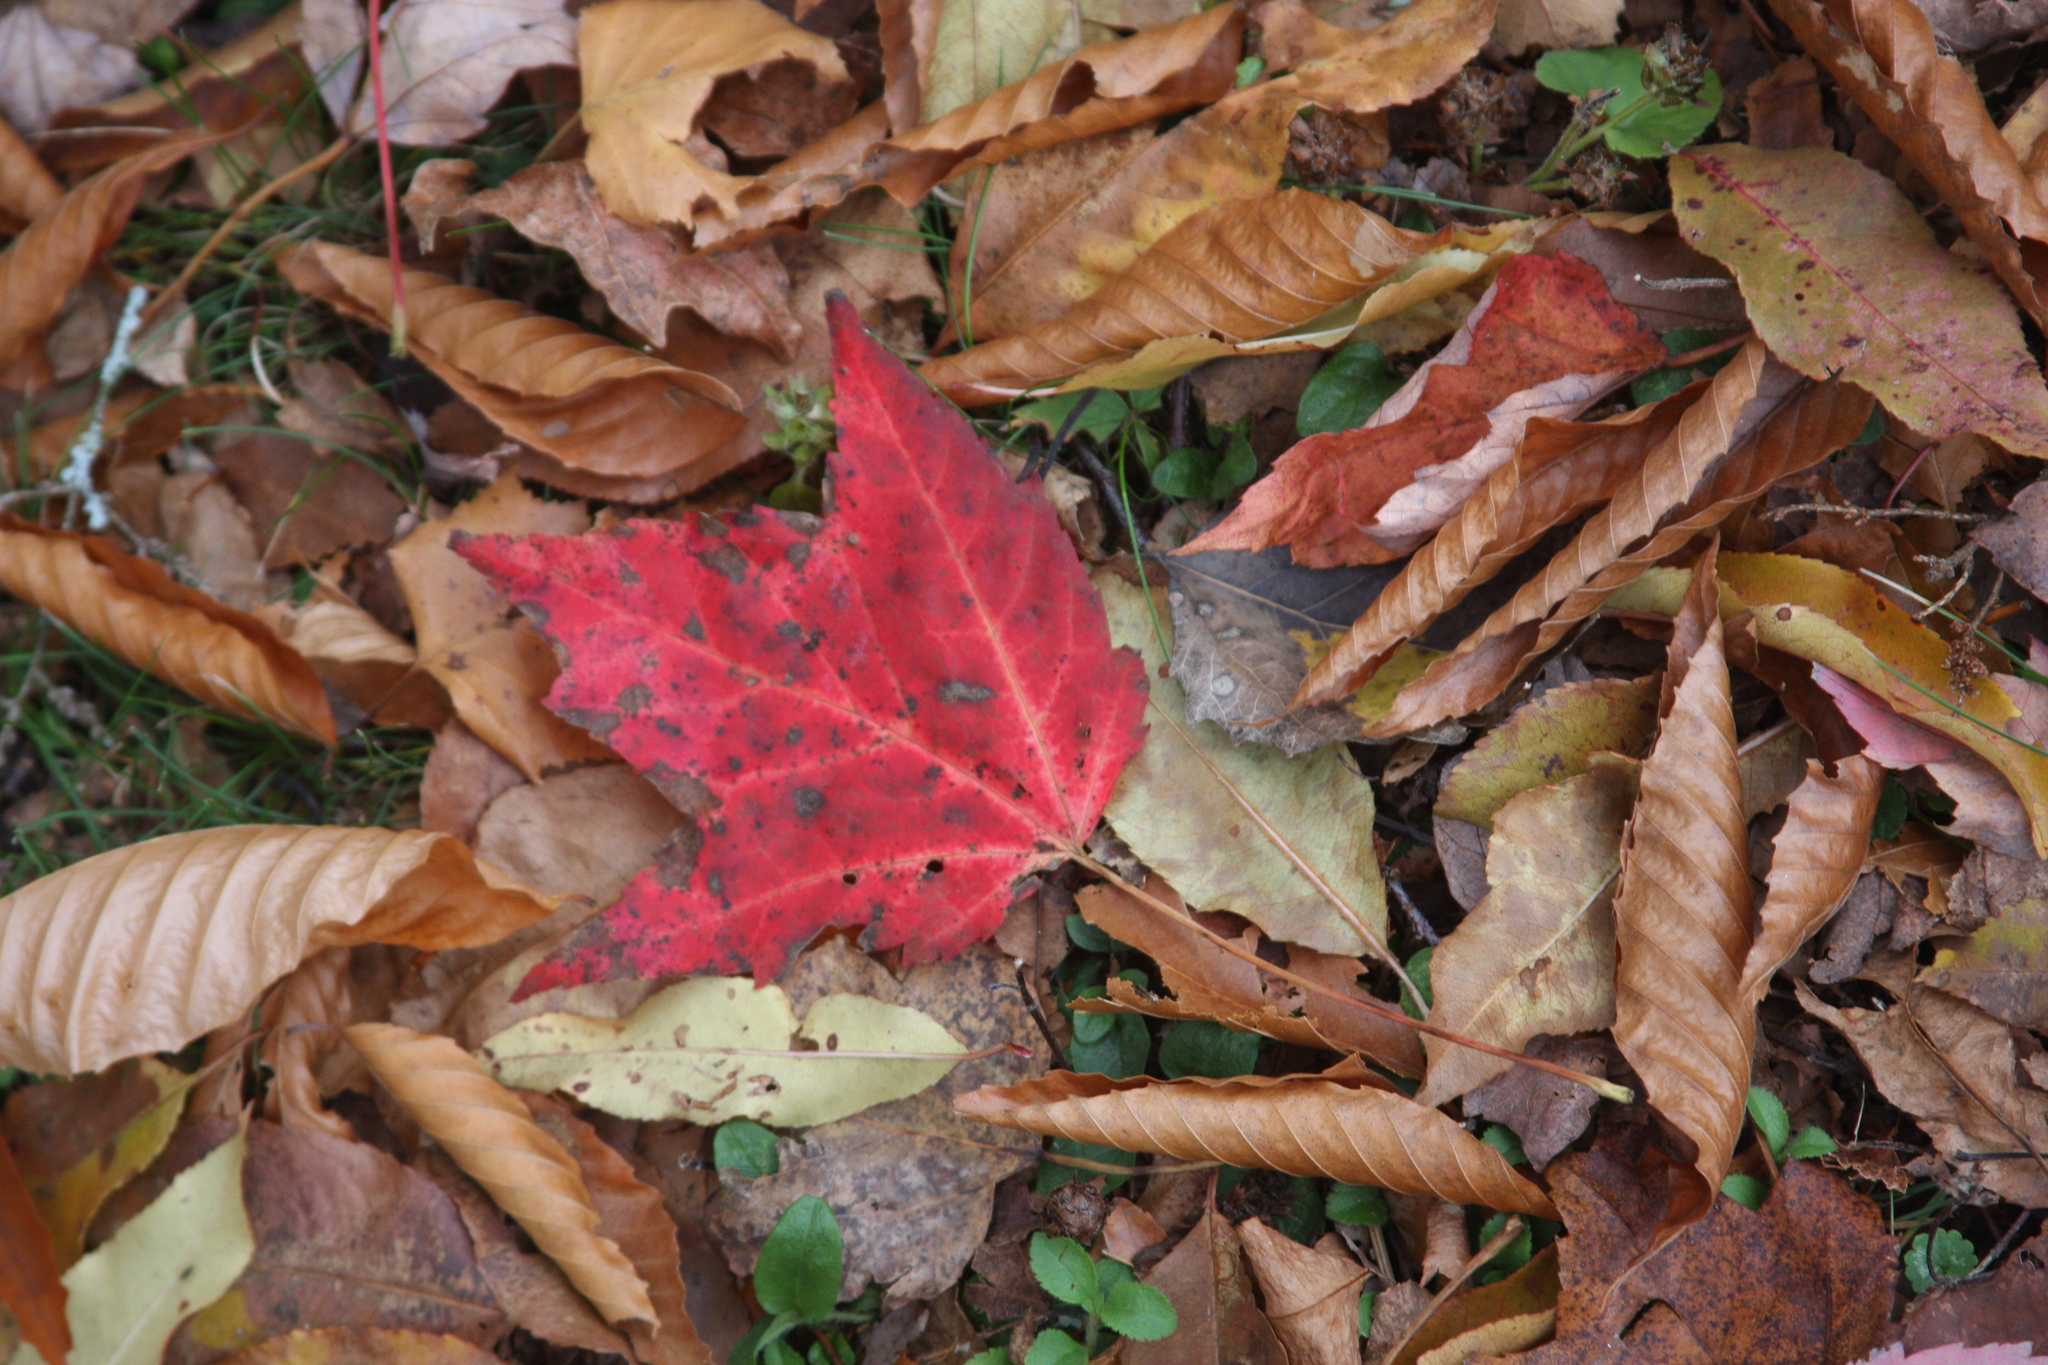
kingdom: Plantae
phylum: Tracheophyta
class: Magnoliopsida
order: Sapindales
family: Sapindaceae
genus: Acer
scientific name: Acer rubrum
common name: Red maple
